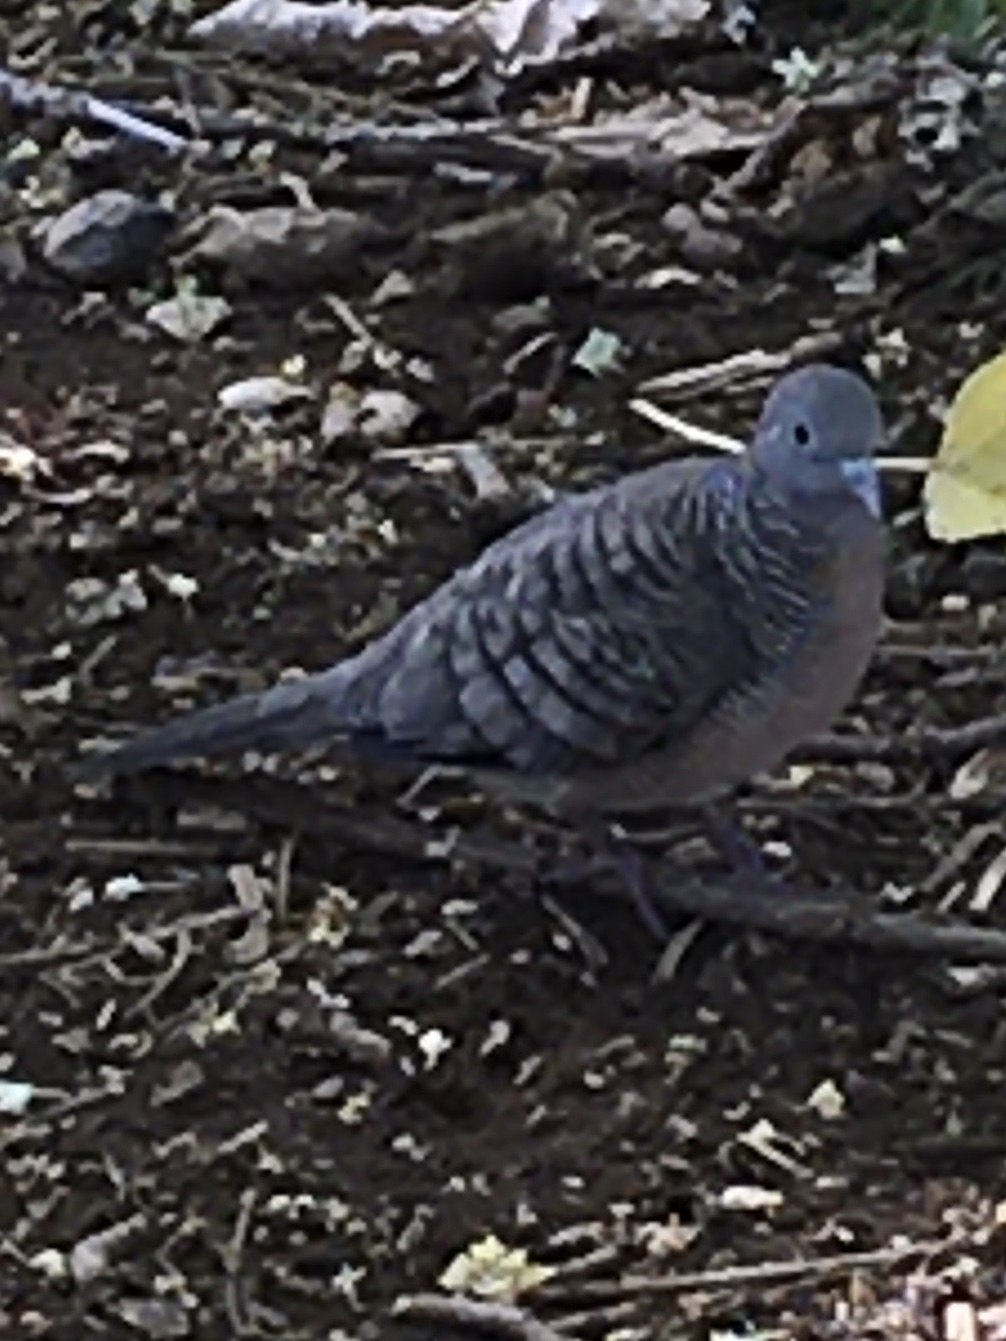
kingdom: Animalia
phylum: Chordata
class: Aves
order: Columbiformes
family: Columbidae
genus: Geopelia
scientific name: Geopelia striata
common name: Zebra dove
